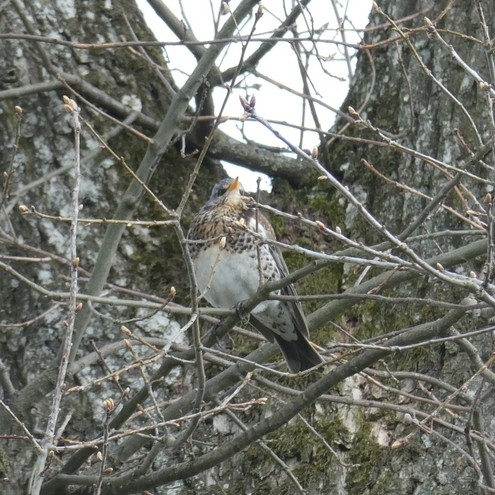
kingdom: Animalia
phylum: Chordata
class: Aves
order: Passeriformes
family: Turdidae
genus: Turdus
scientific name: Turdus pilaris
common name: Fieldfare
